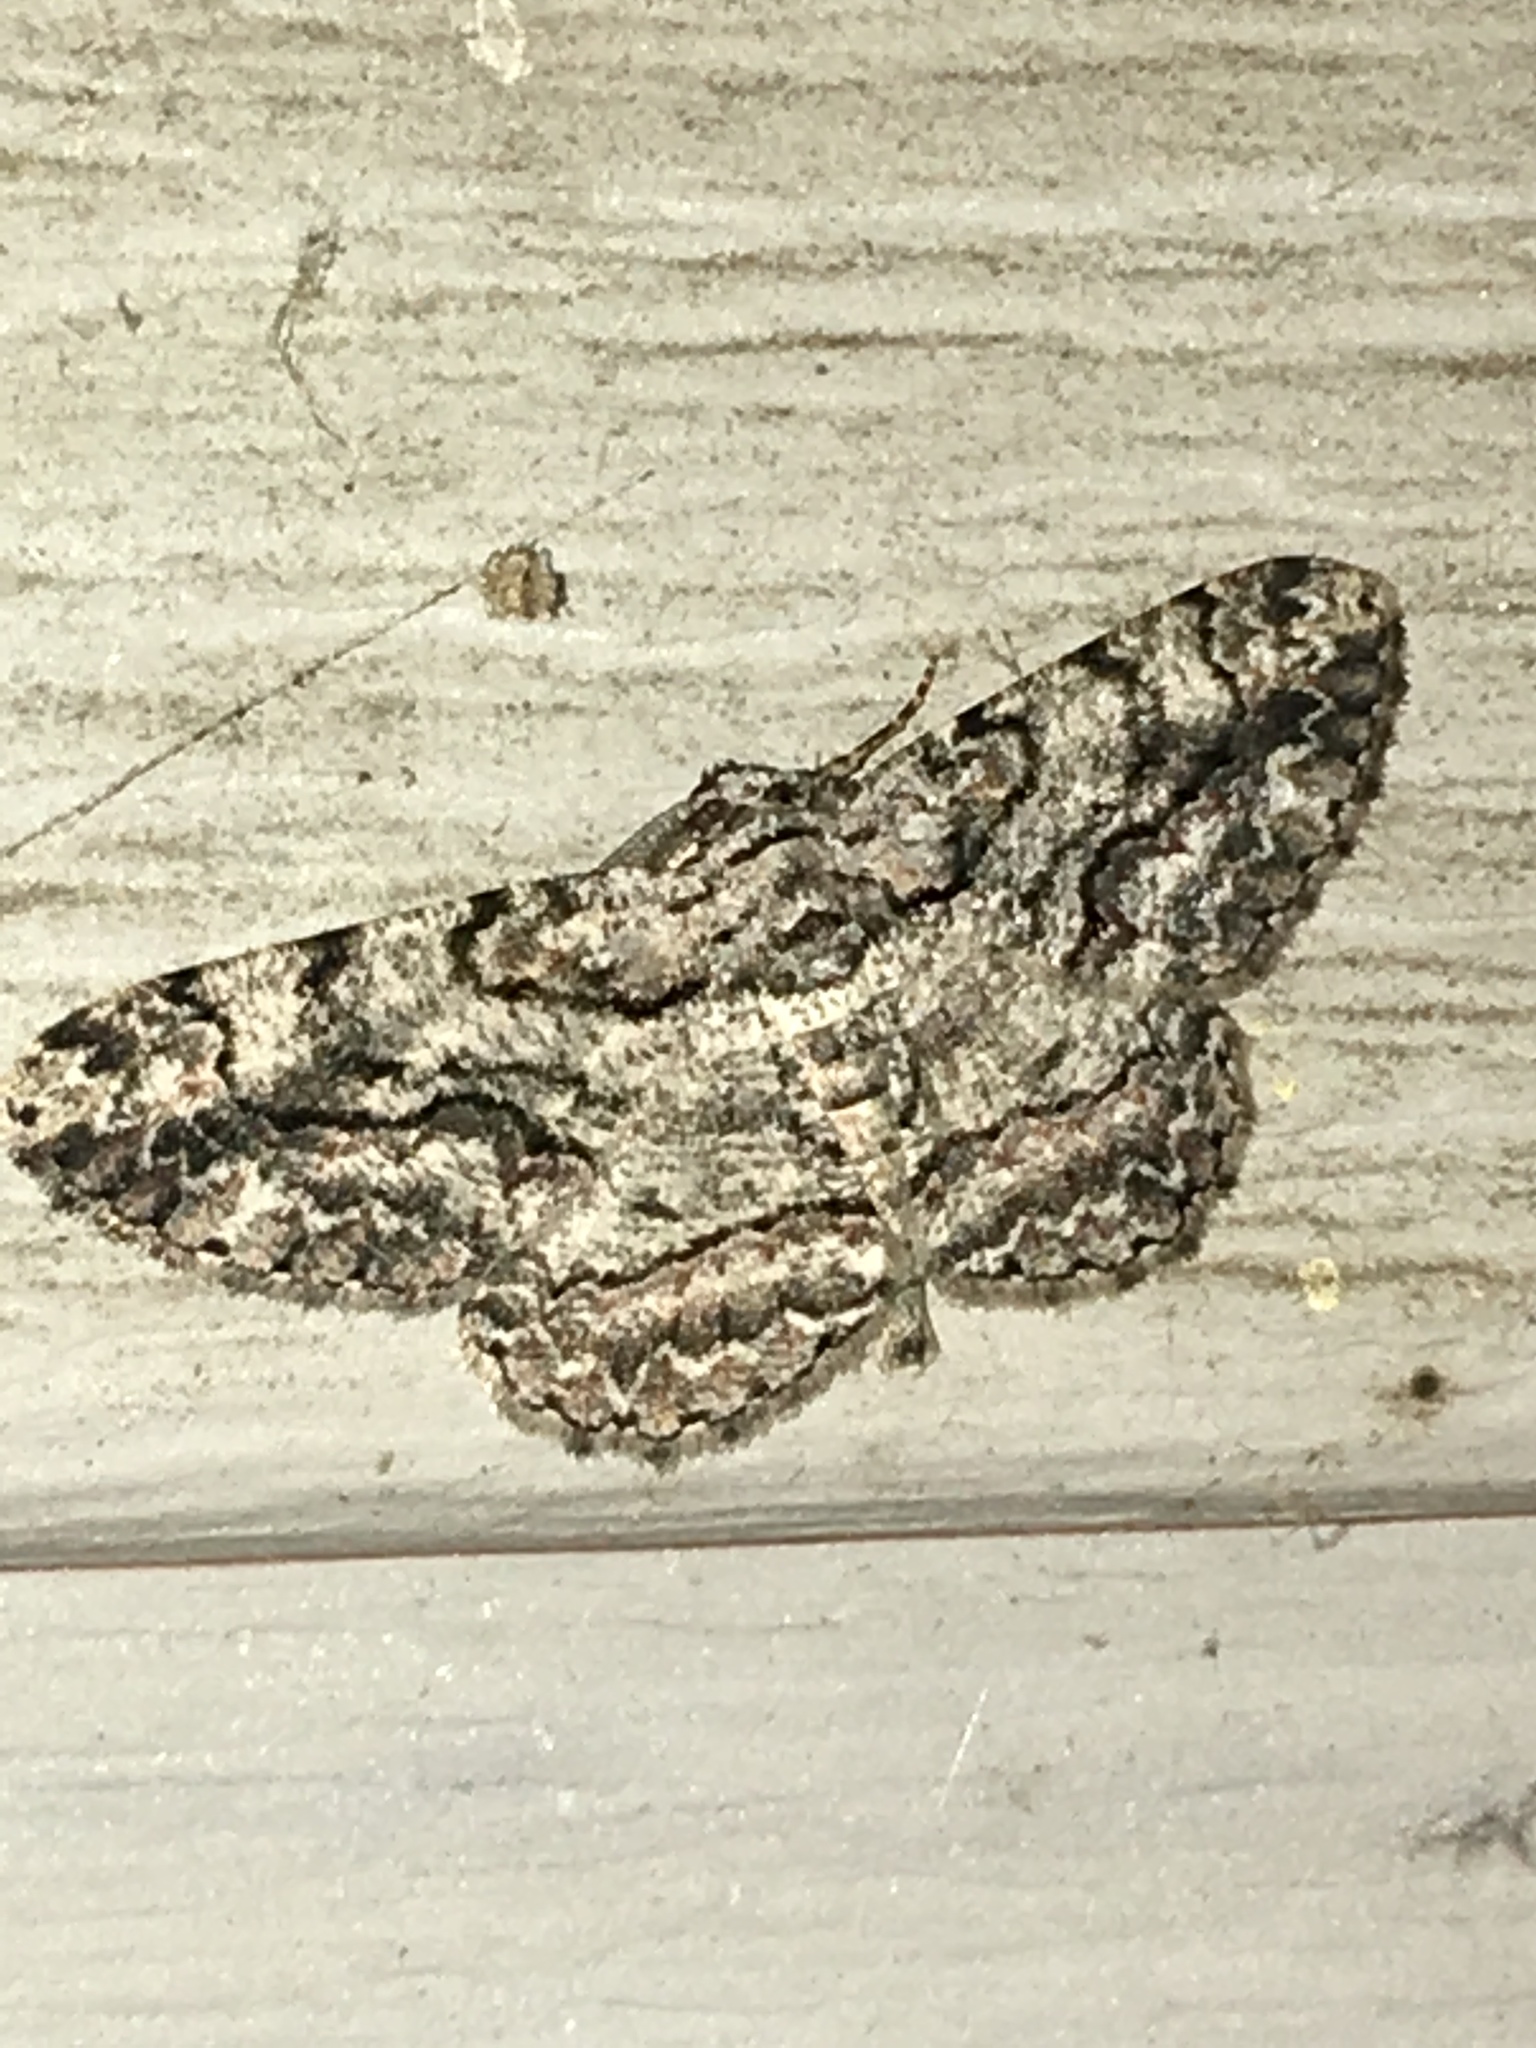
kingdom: Animalia
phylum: Arthropoda
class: Insecta
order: Lepidoptera
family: Geometridae
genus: Anavitrinella
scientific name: Anavitrinella pampinaria
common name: Common gray
